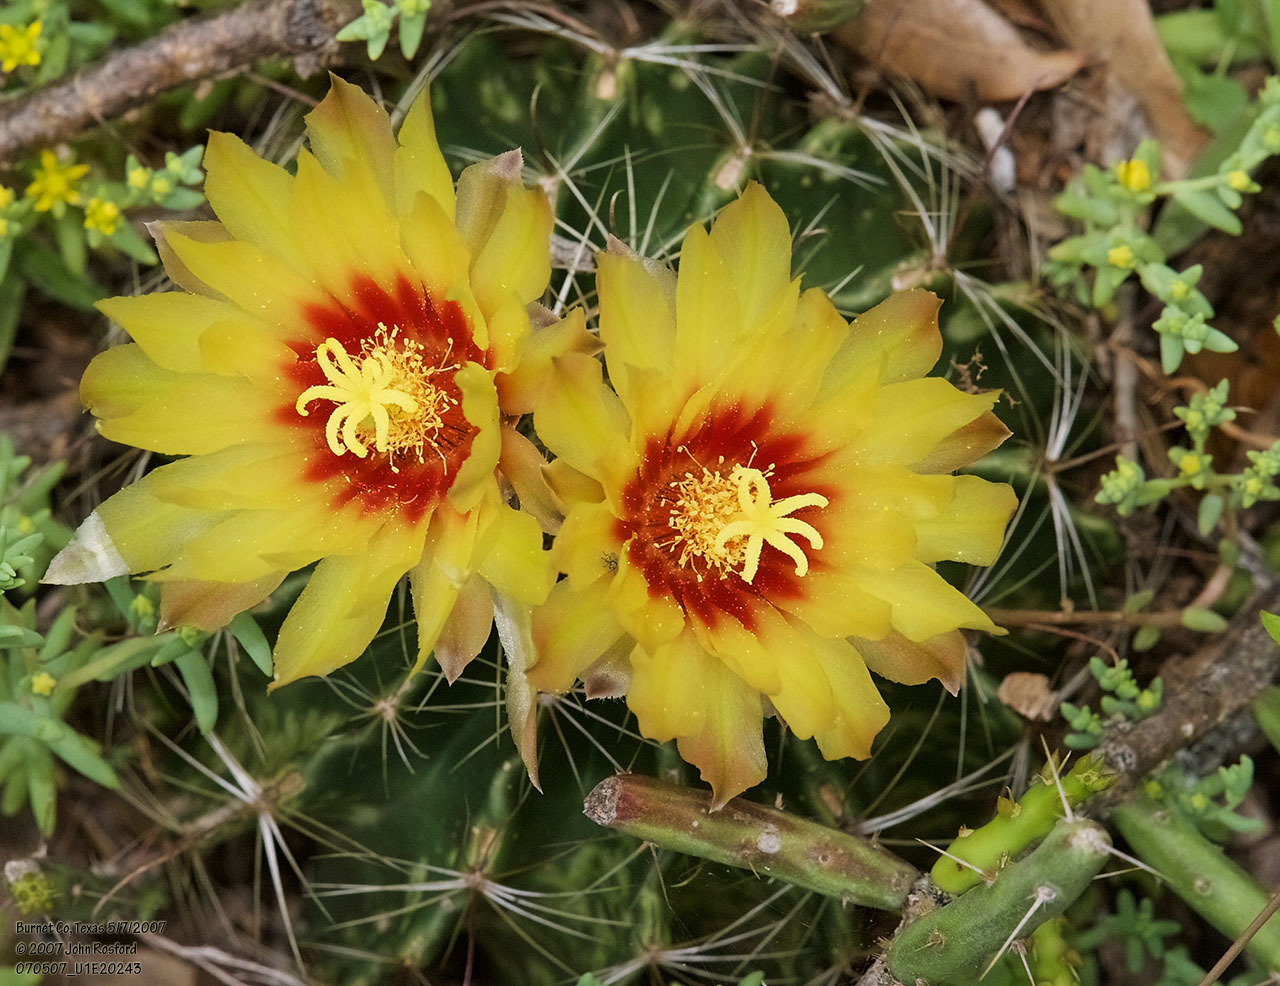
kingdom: Plantae
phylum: Tracheophyta
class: Magnoliopsida
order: Caryophyllales
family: Cactaceae
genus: Thelocactus
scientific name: Thelocactus setispinus
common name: Miniature barrel cactus
